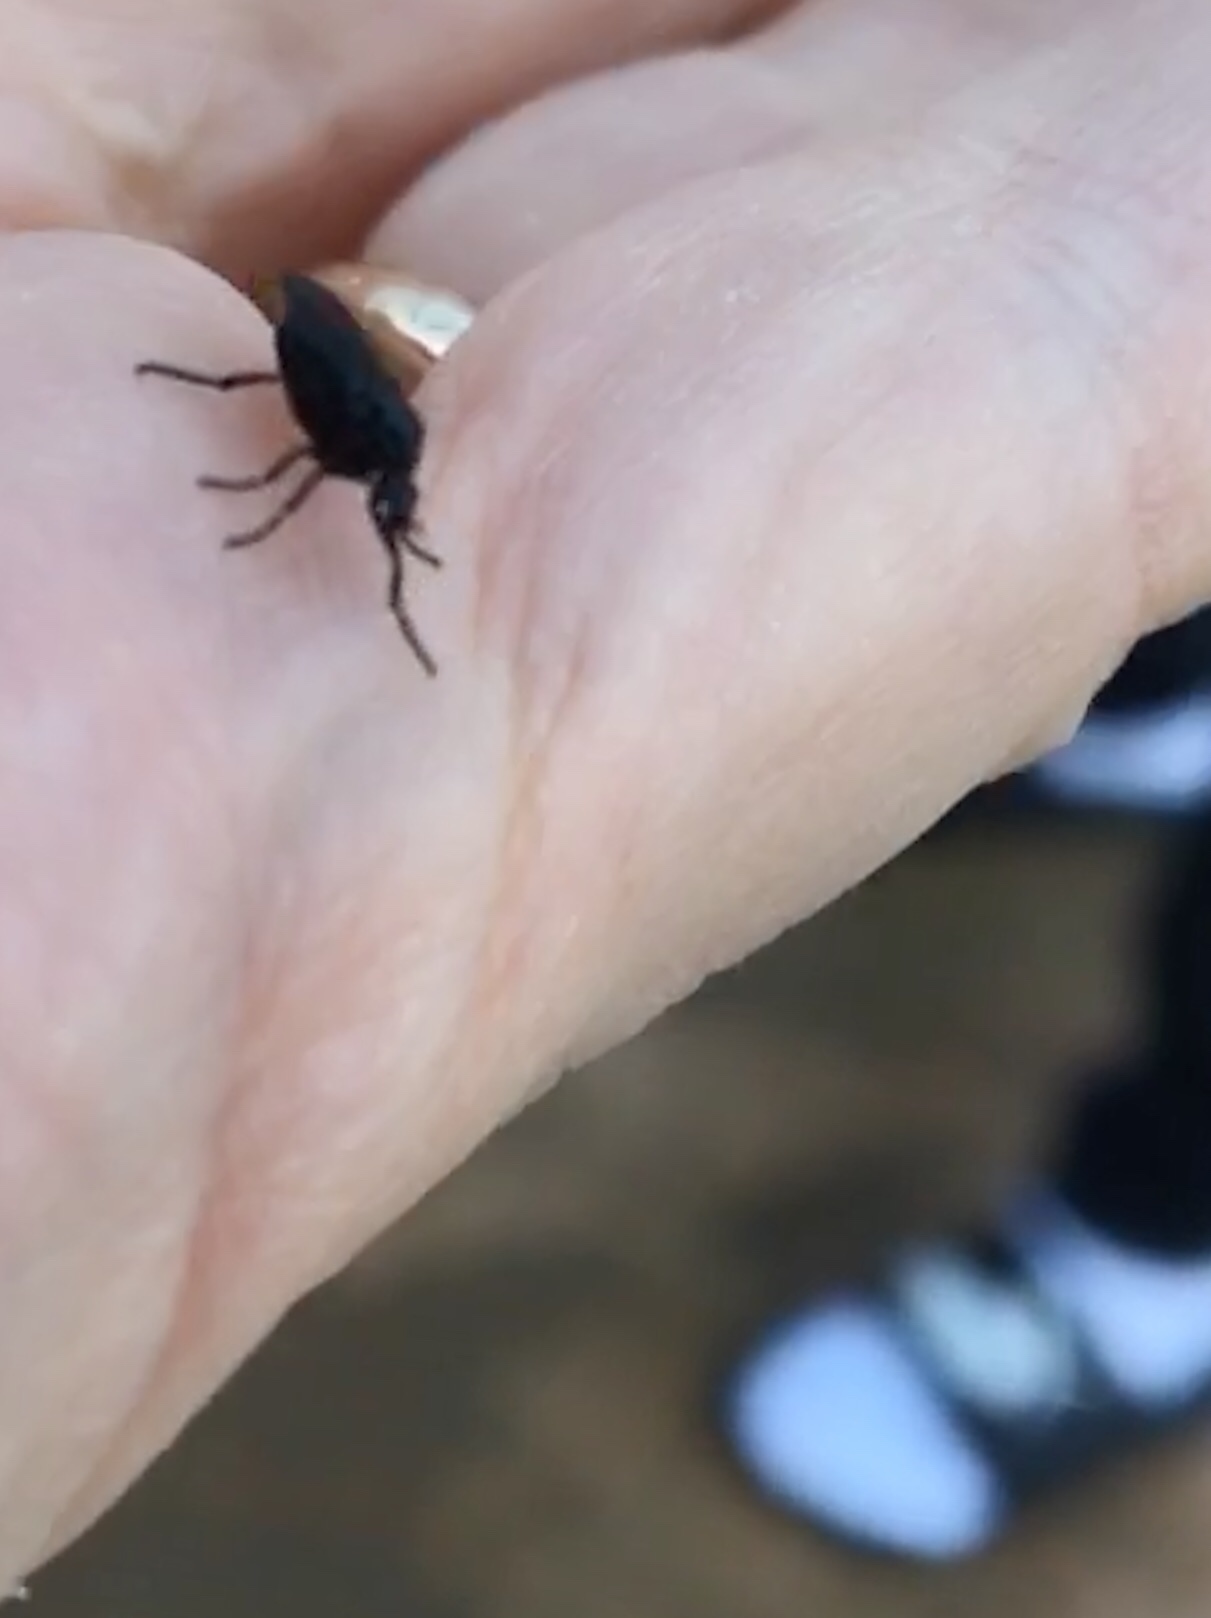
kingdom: Animalia
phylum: Arthropoda
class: Insecta
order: Diptera
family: Bibionidae
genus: Dilophus
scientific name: Dilophus orbatus
